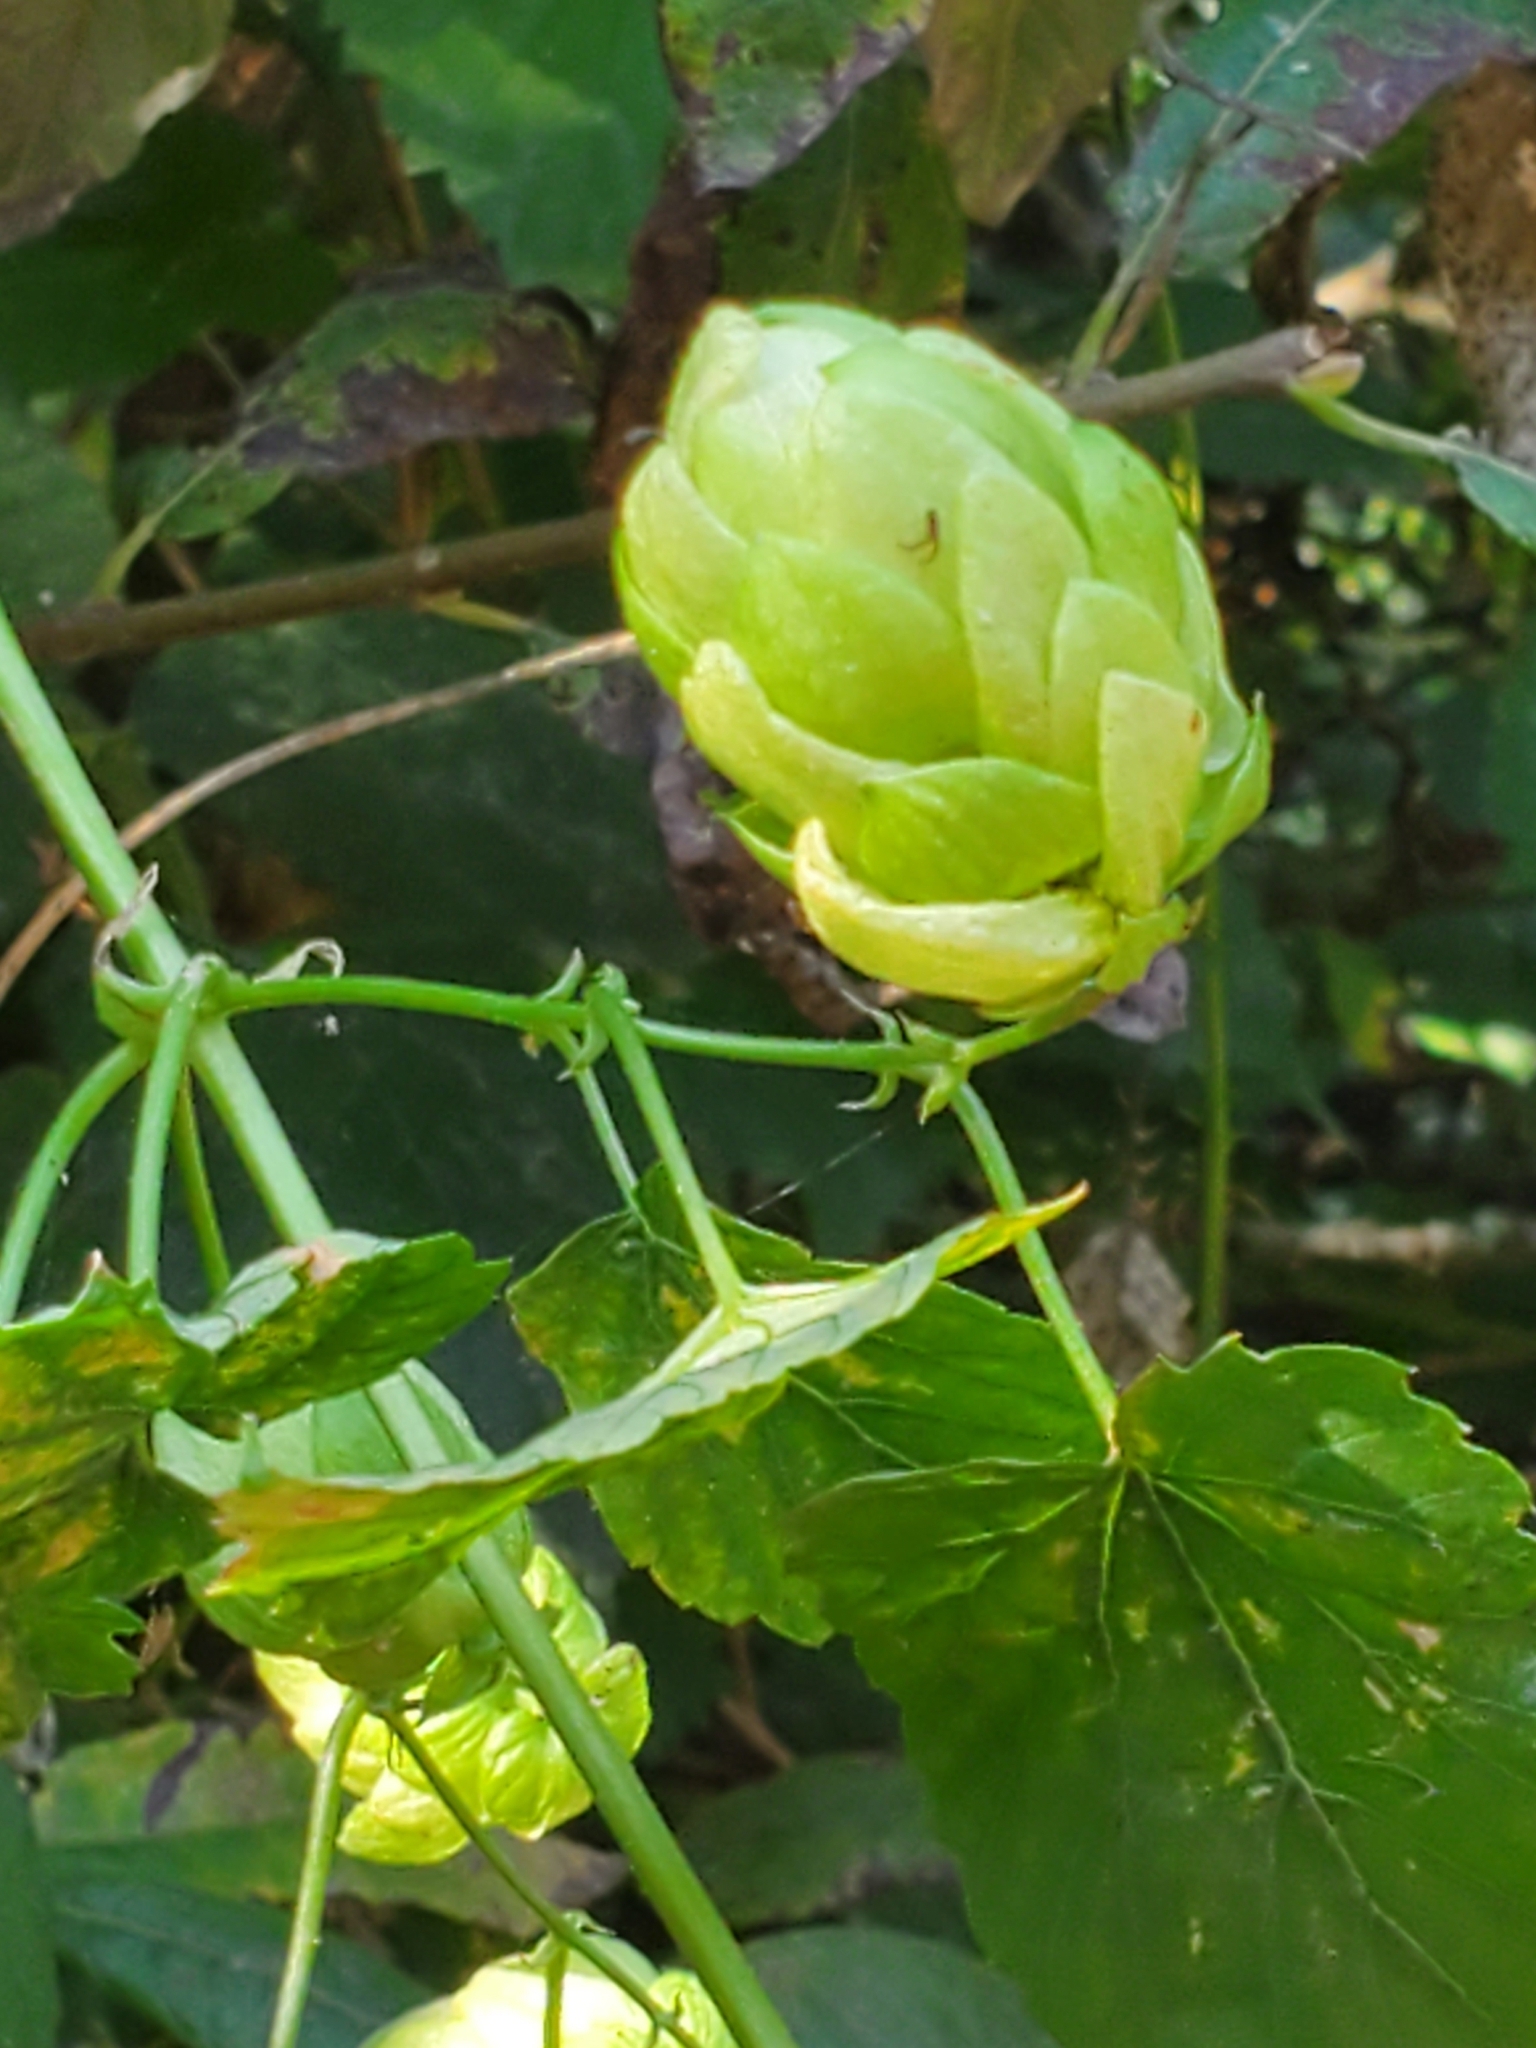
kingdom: Plantae
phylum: Tracheophyta
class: Magnoliopsida
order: Rosales
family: Cannabaceae
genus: Humulus
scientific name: Humulus lupulus
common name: Hop
